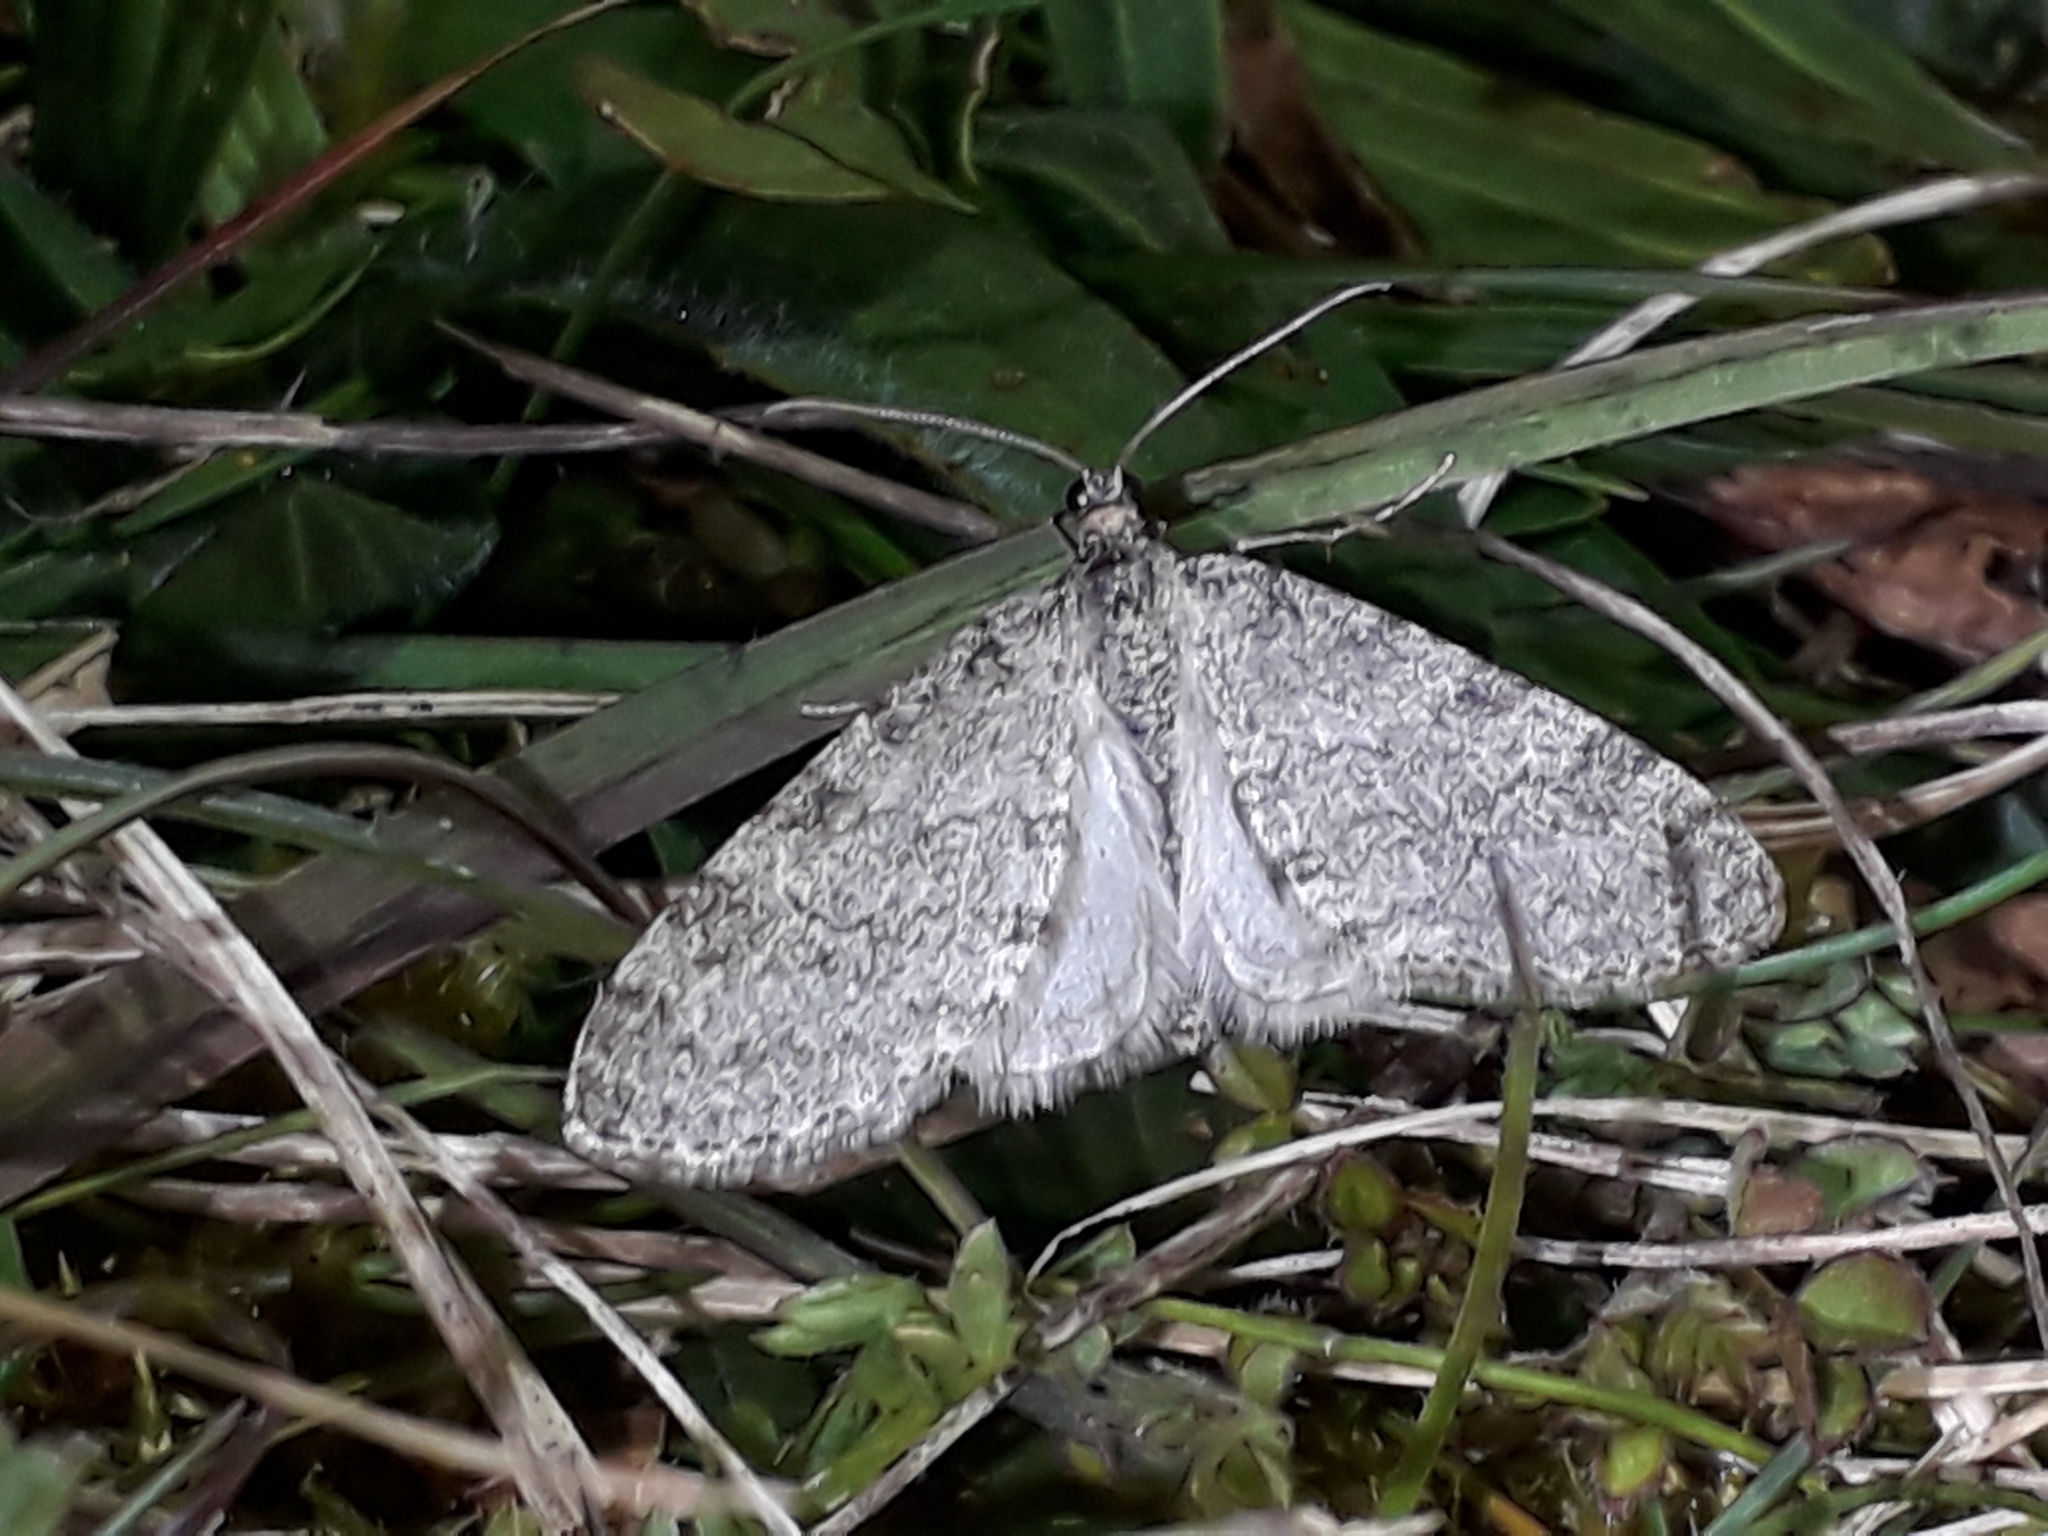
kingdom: Animalia
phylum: Arthropoda
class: Insecta
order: Lepidoptera
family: Geometridae
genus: Trichopteryx
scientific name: Trichopteryx carpinata
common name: Early tooth-striped
